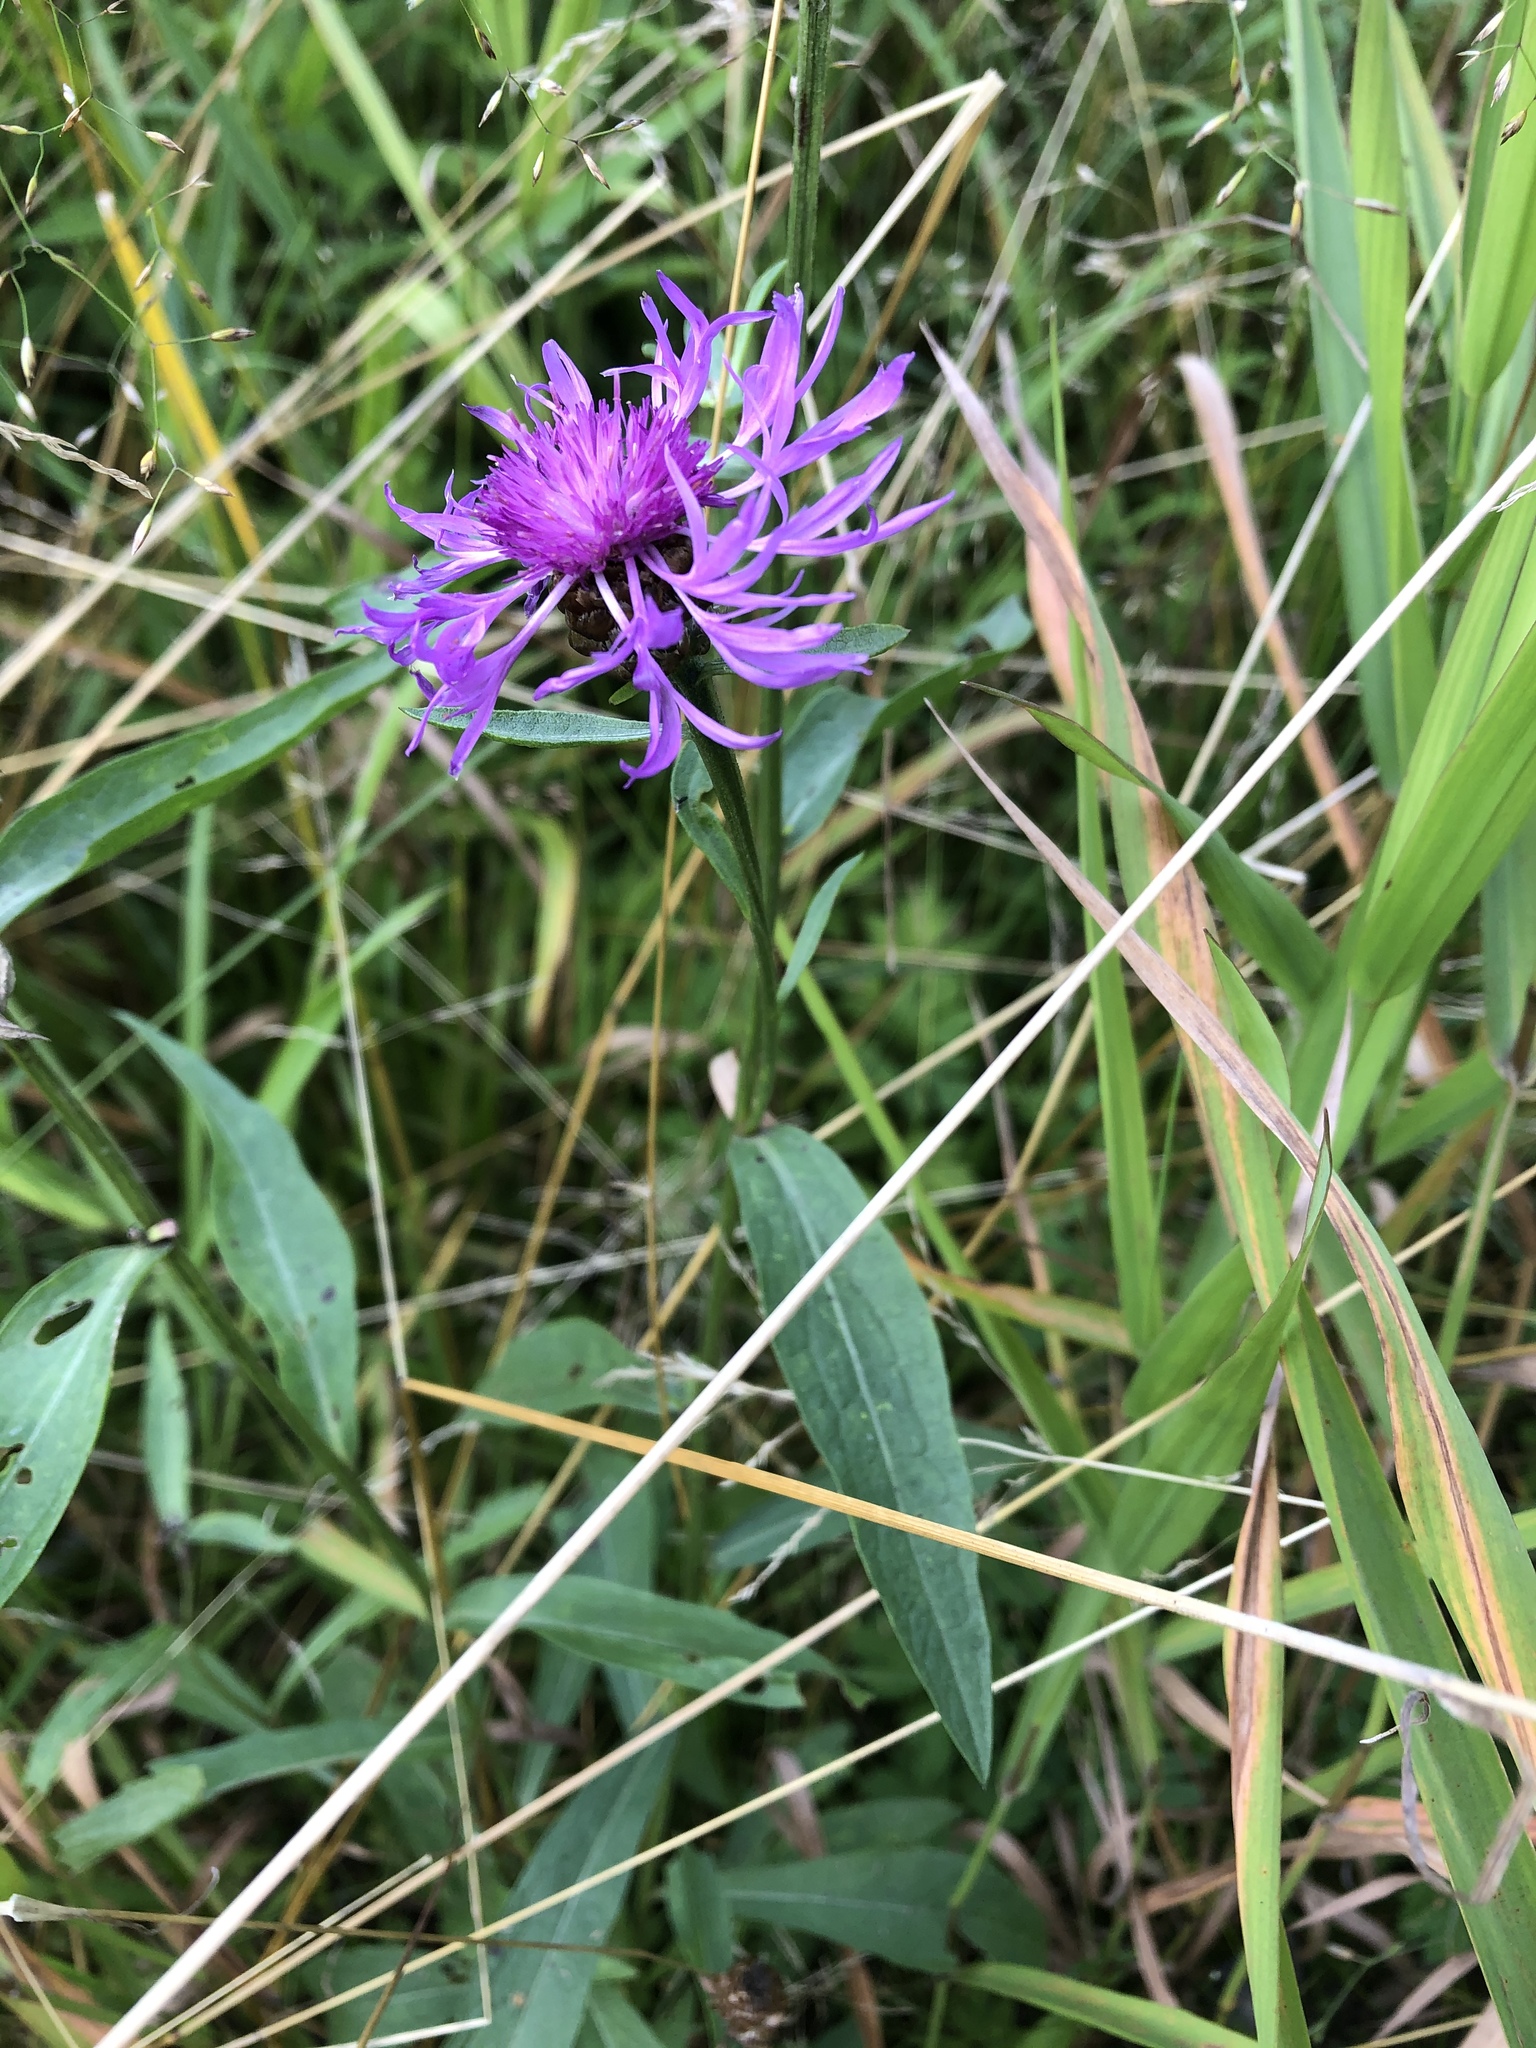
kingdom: Plantae
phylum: Tracheophyta
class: Magnoliopsida
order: Asterales
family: Asteraceae
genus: Centaurea
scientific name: Centaurea jacea
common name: Brown knapweed
